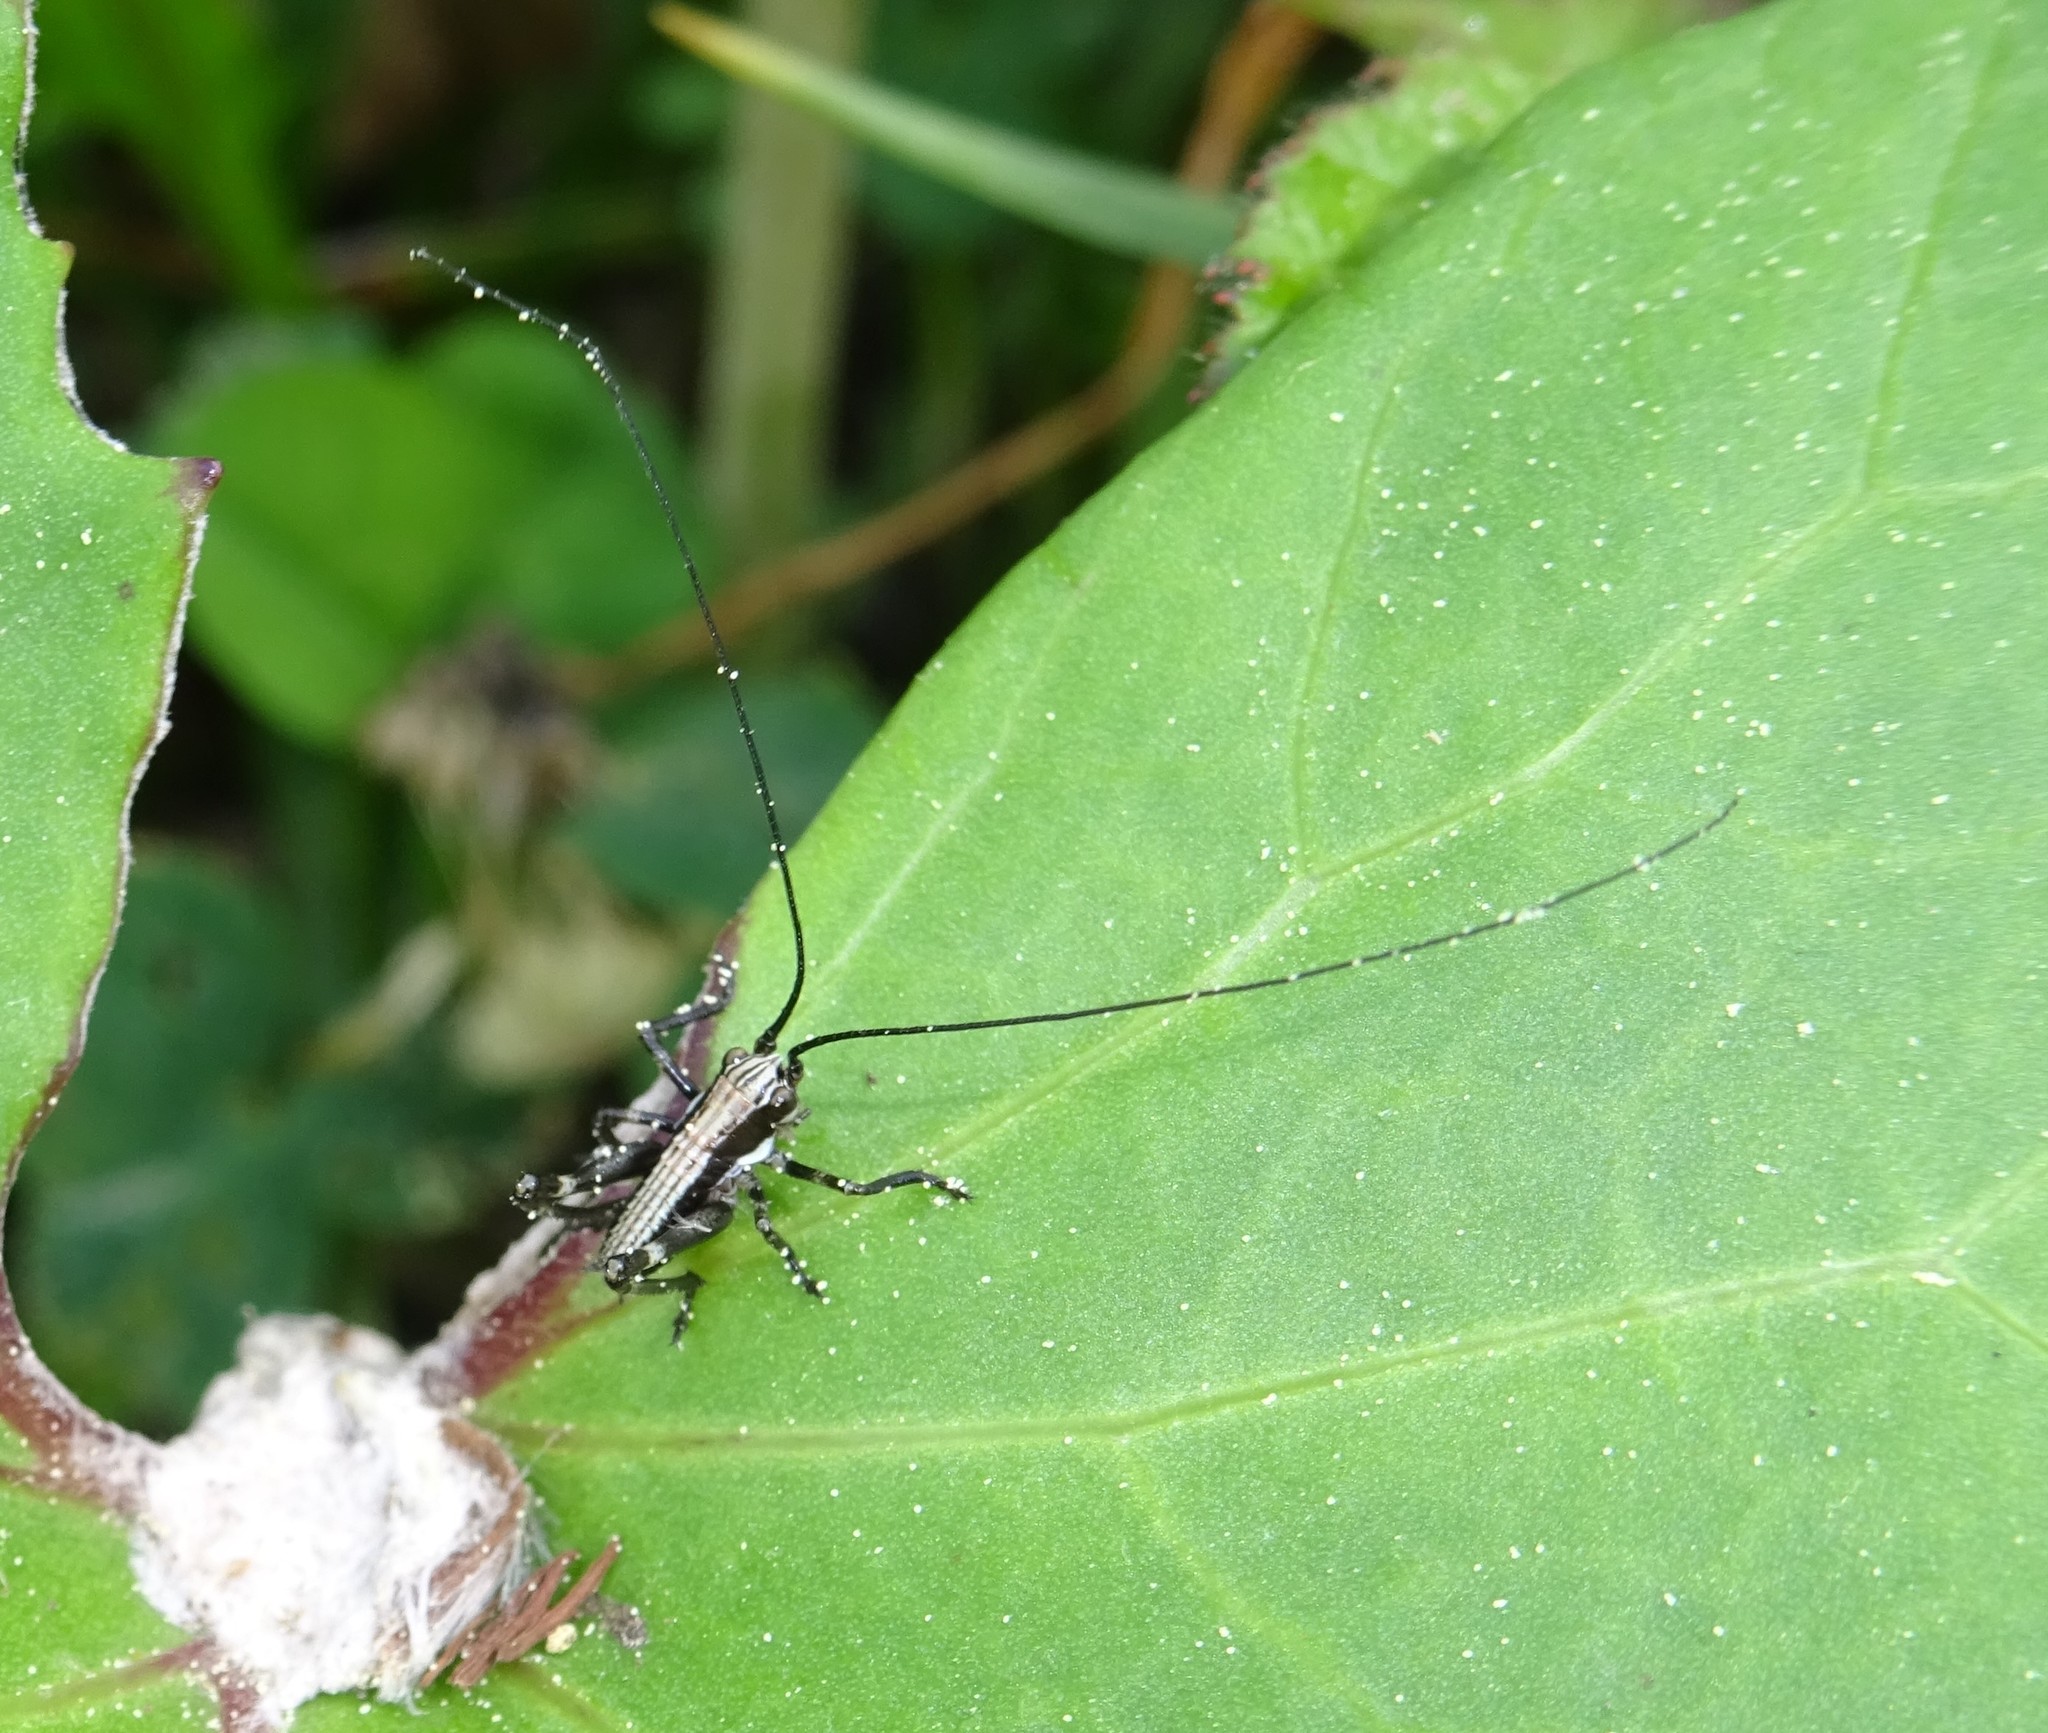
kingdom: Animalia
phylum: Arthropoda
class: Insecta
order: Orthoptera
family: Tettigoniidae
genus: Antaxius
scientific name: Antaxius pedestris
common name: Common mountain bush-cricket
